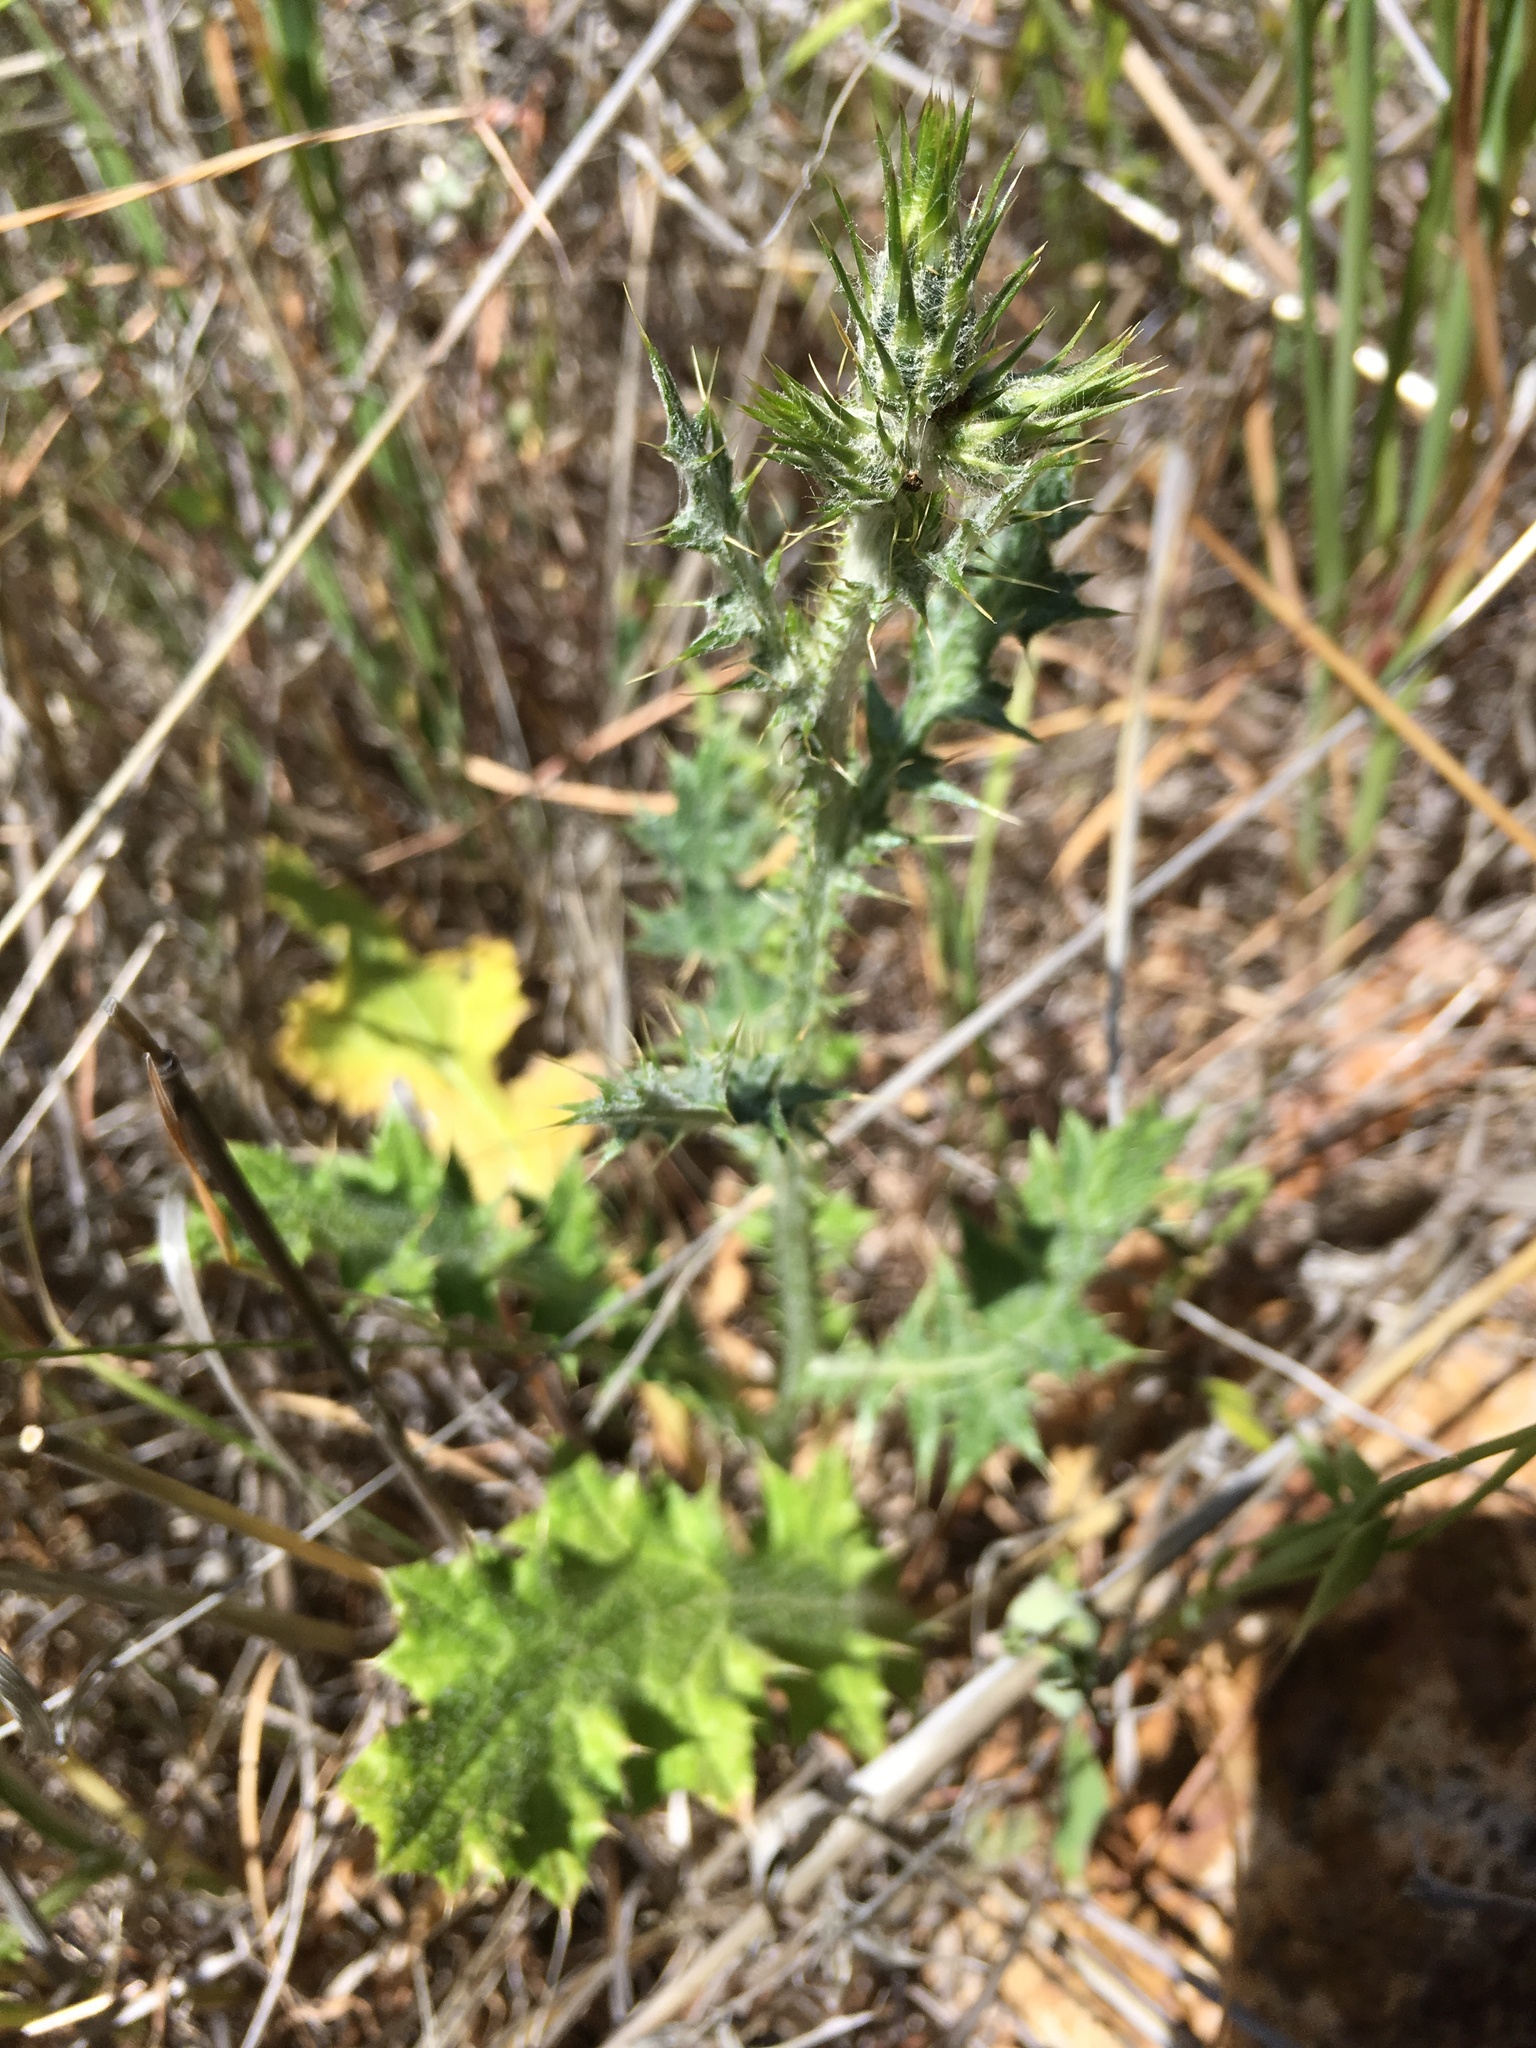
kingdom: Plantae
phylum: Tracheophyta
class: Magnoliopsida
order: Asterales
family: Asteraceae
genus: Carduus
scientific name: Carduus pycnocephalus
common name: Plymouth thistle
